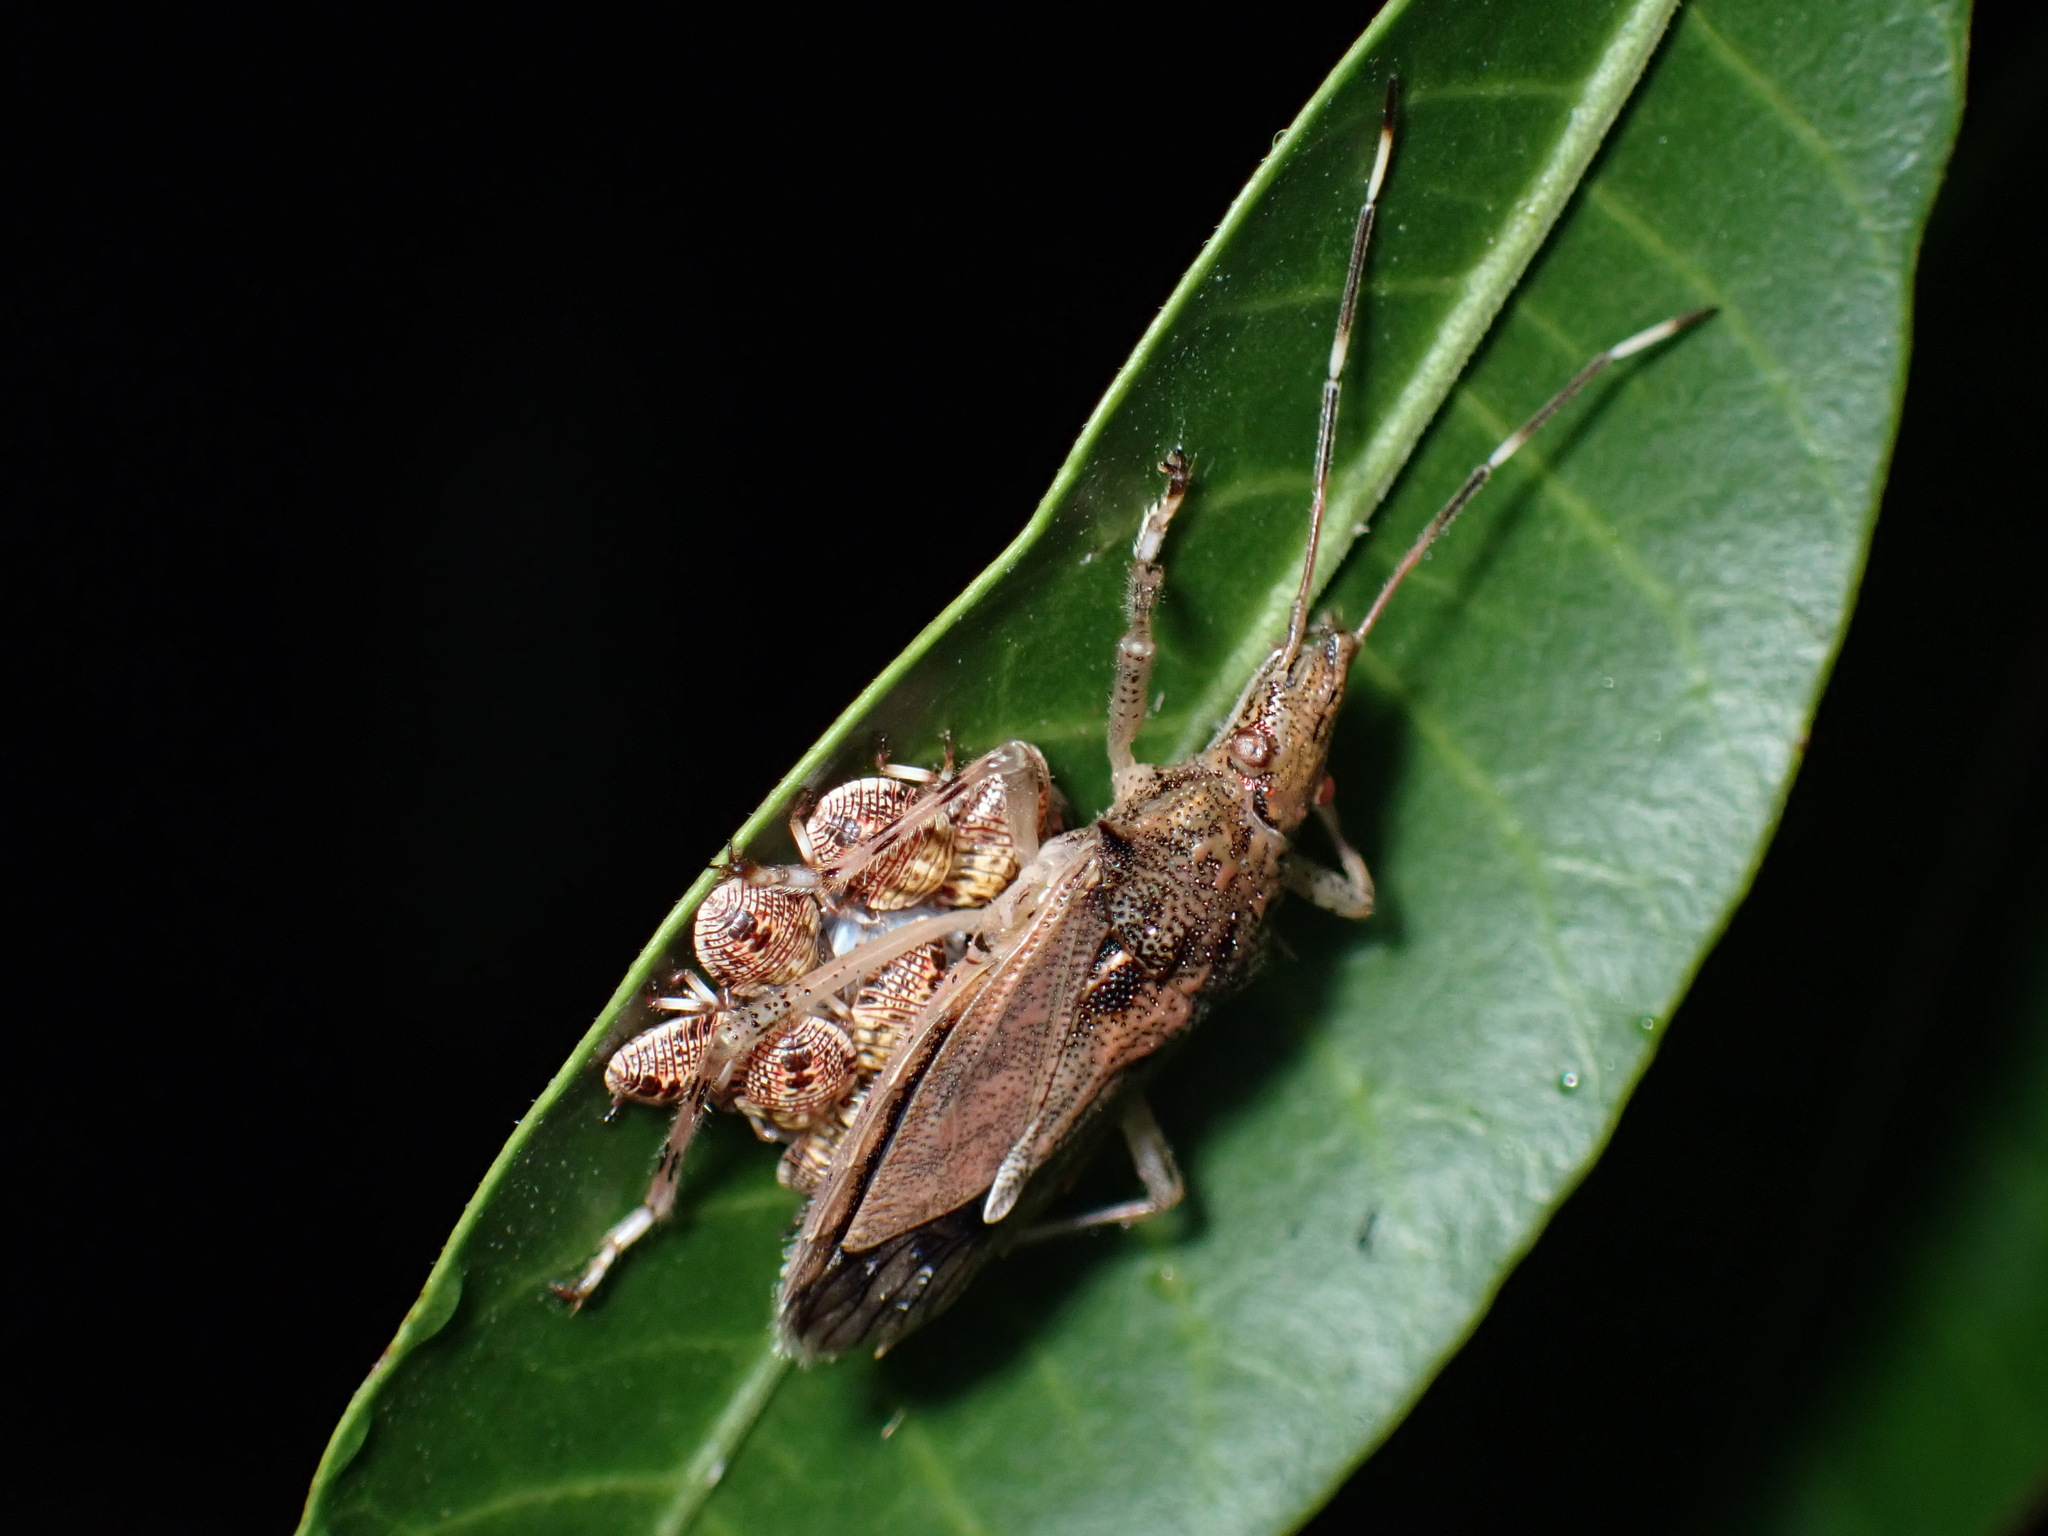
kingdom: Animalia
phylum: Arthropoda
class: Insecta
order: Hemiptera
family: Pentatomidae
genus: Bromocoris
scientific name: Bromocoris
